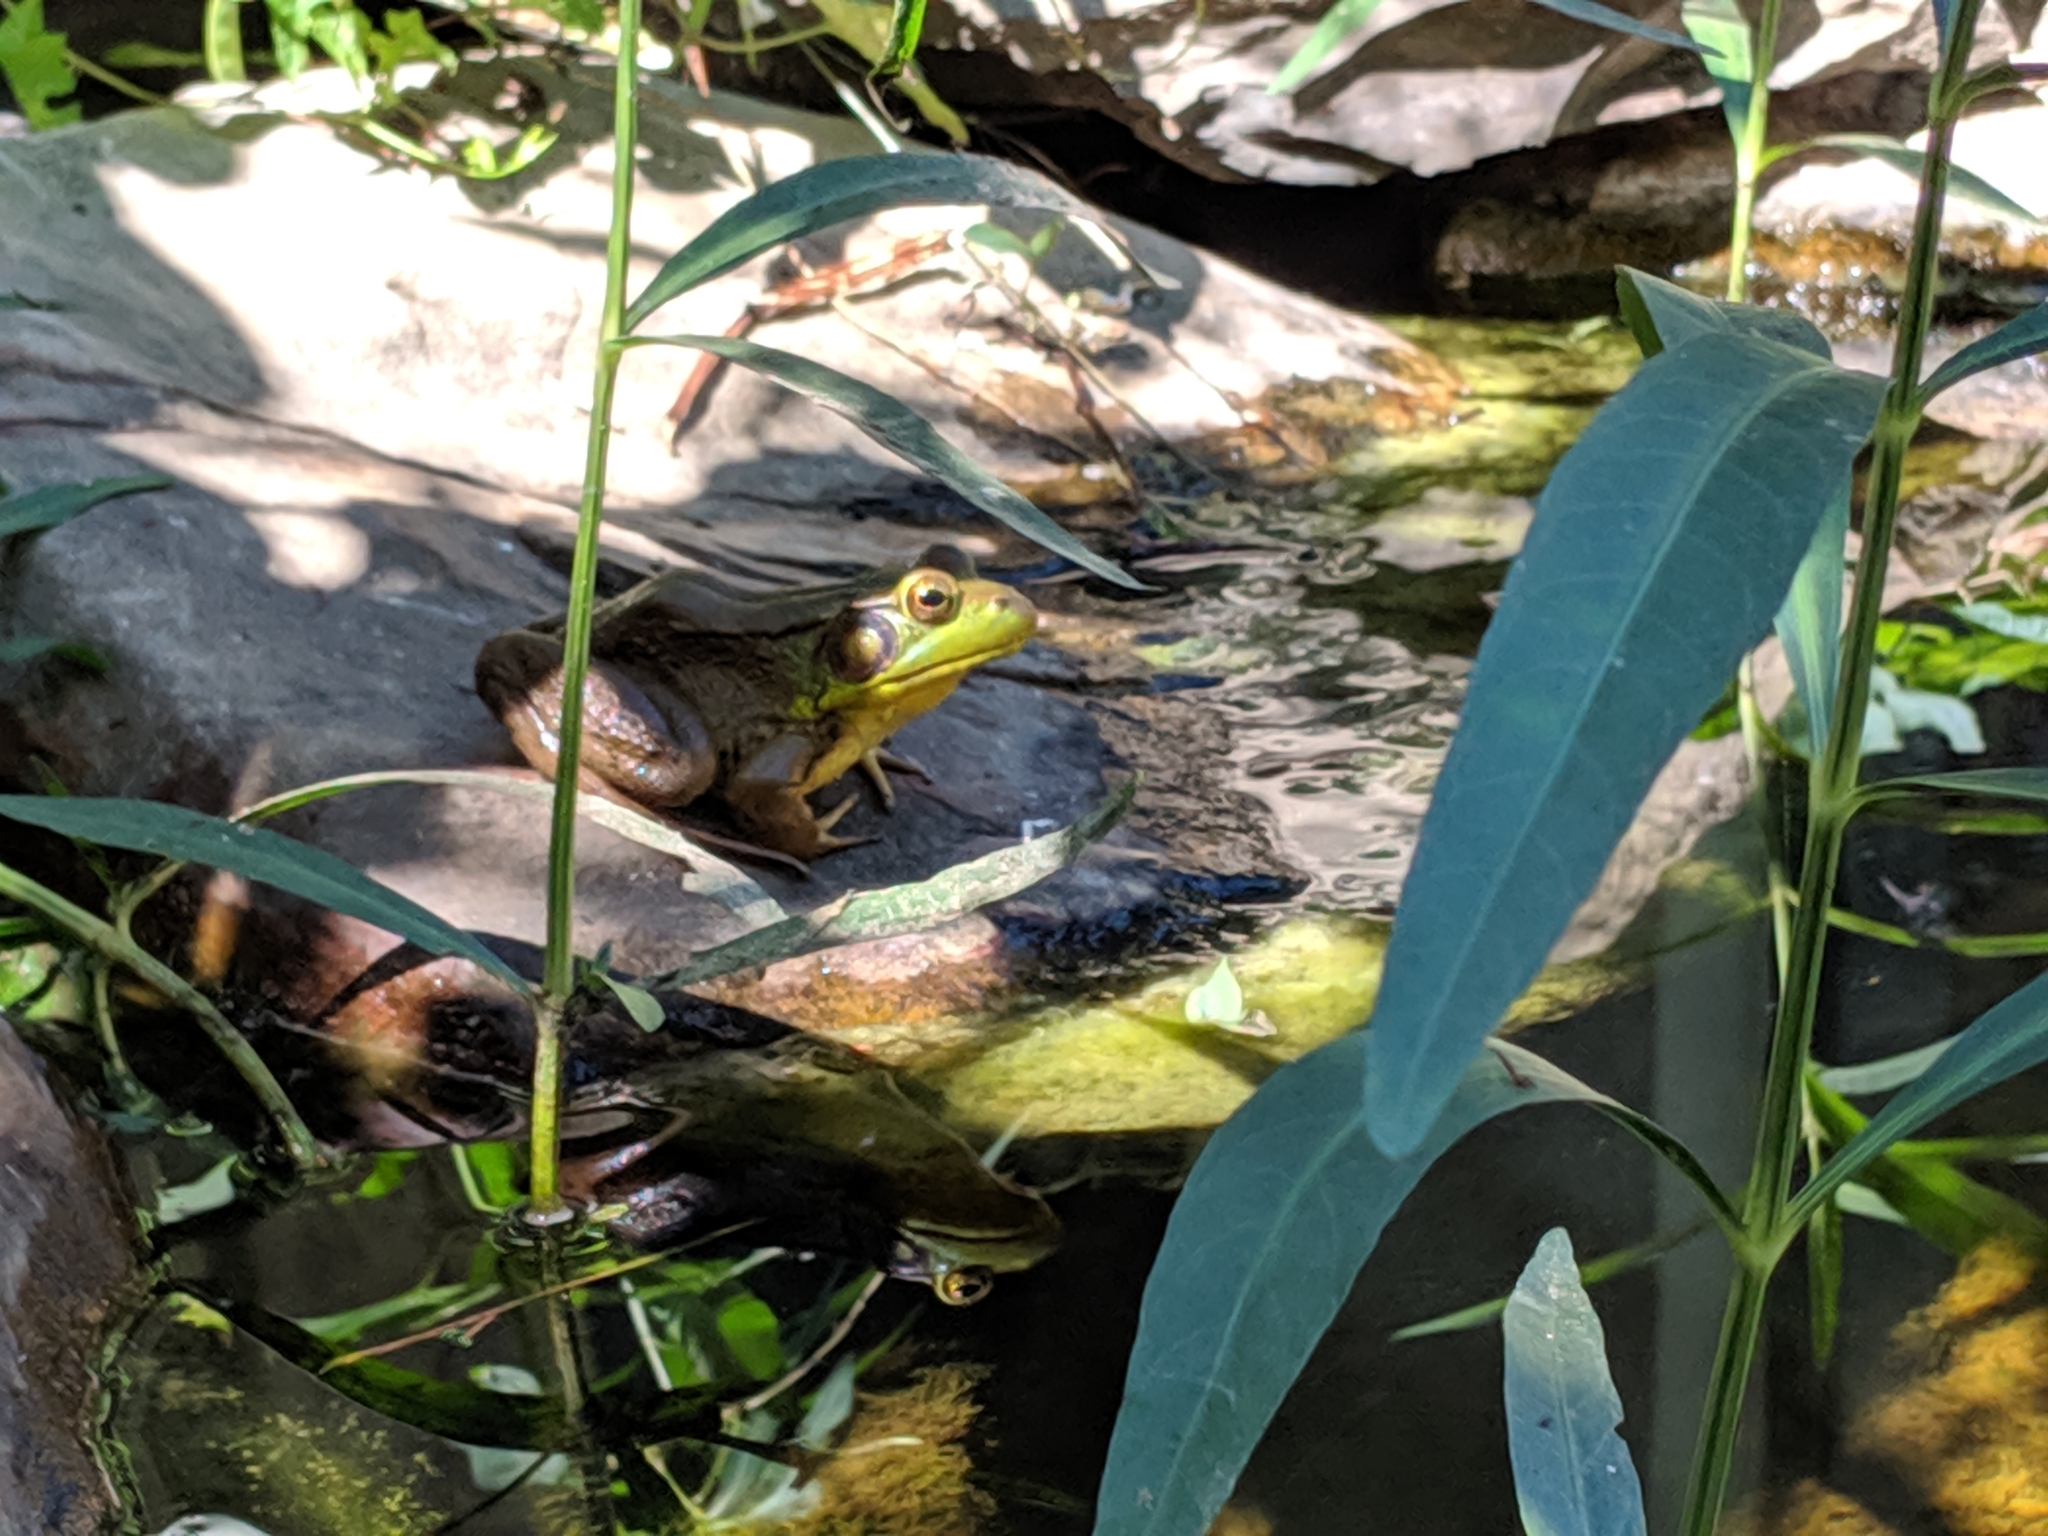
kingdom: Animalia
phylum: Chordata
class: Amphibia
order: Anura
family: Ranidae
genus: Lithobates
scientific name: Lithobates clamitans
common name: Green frog
